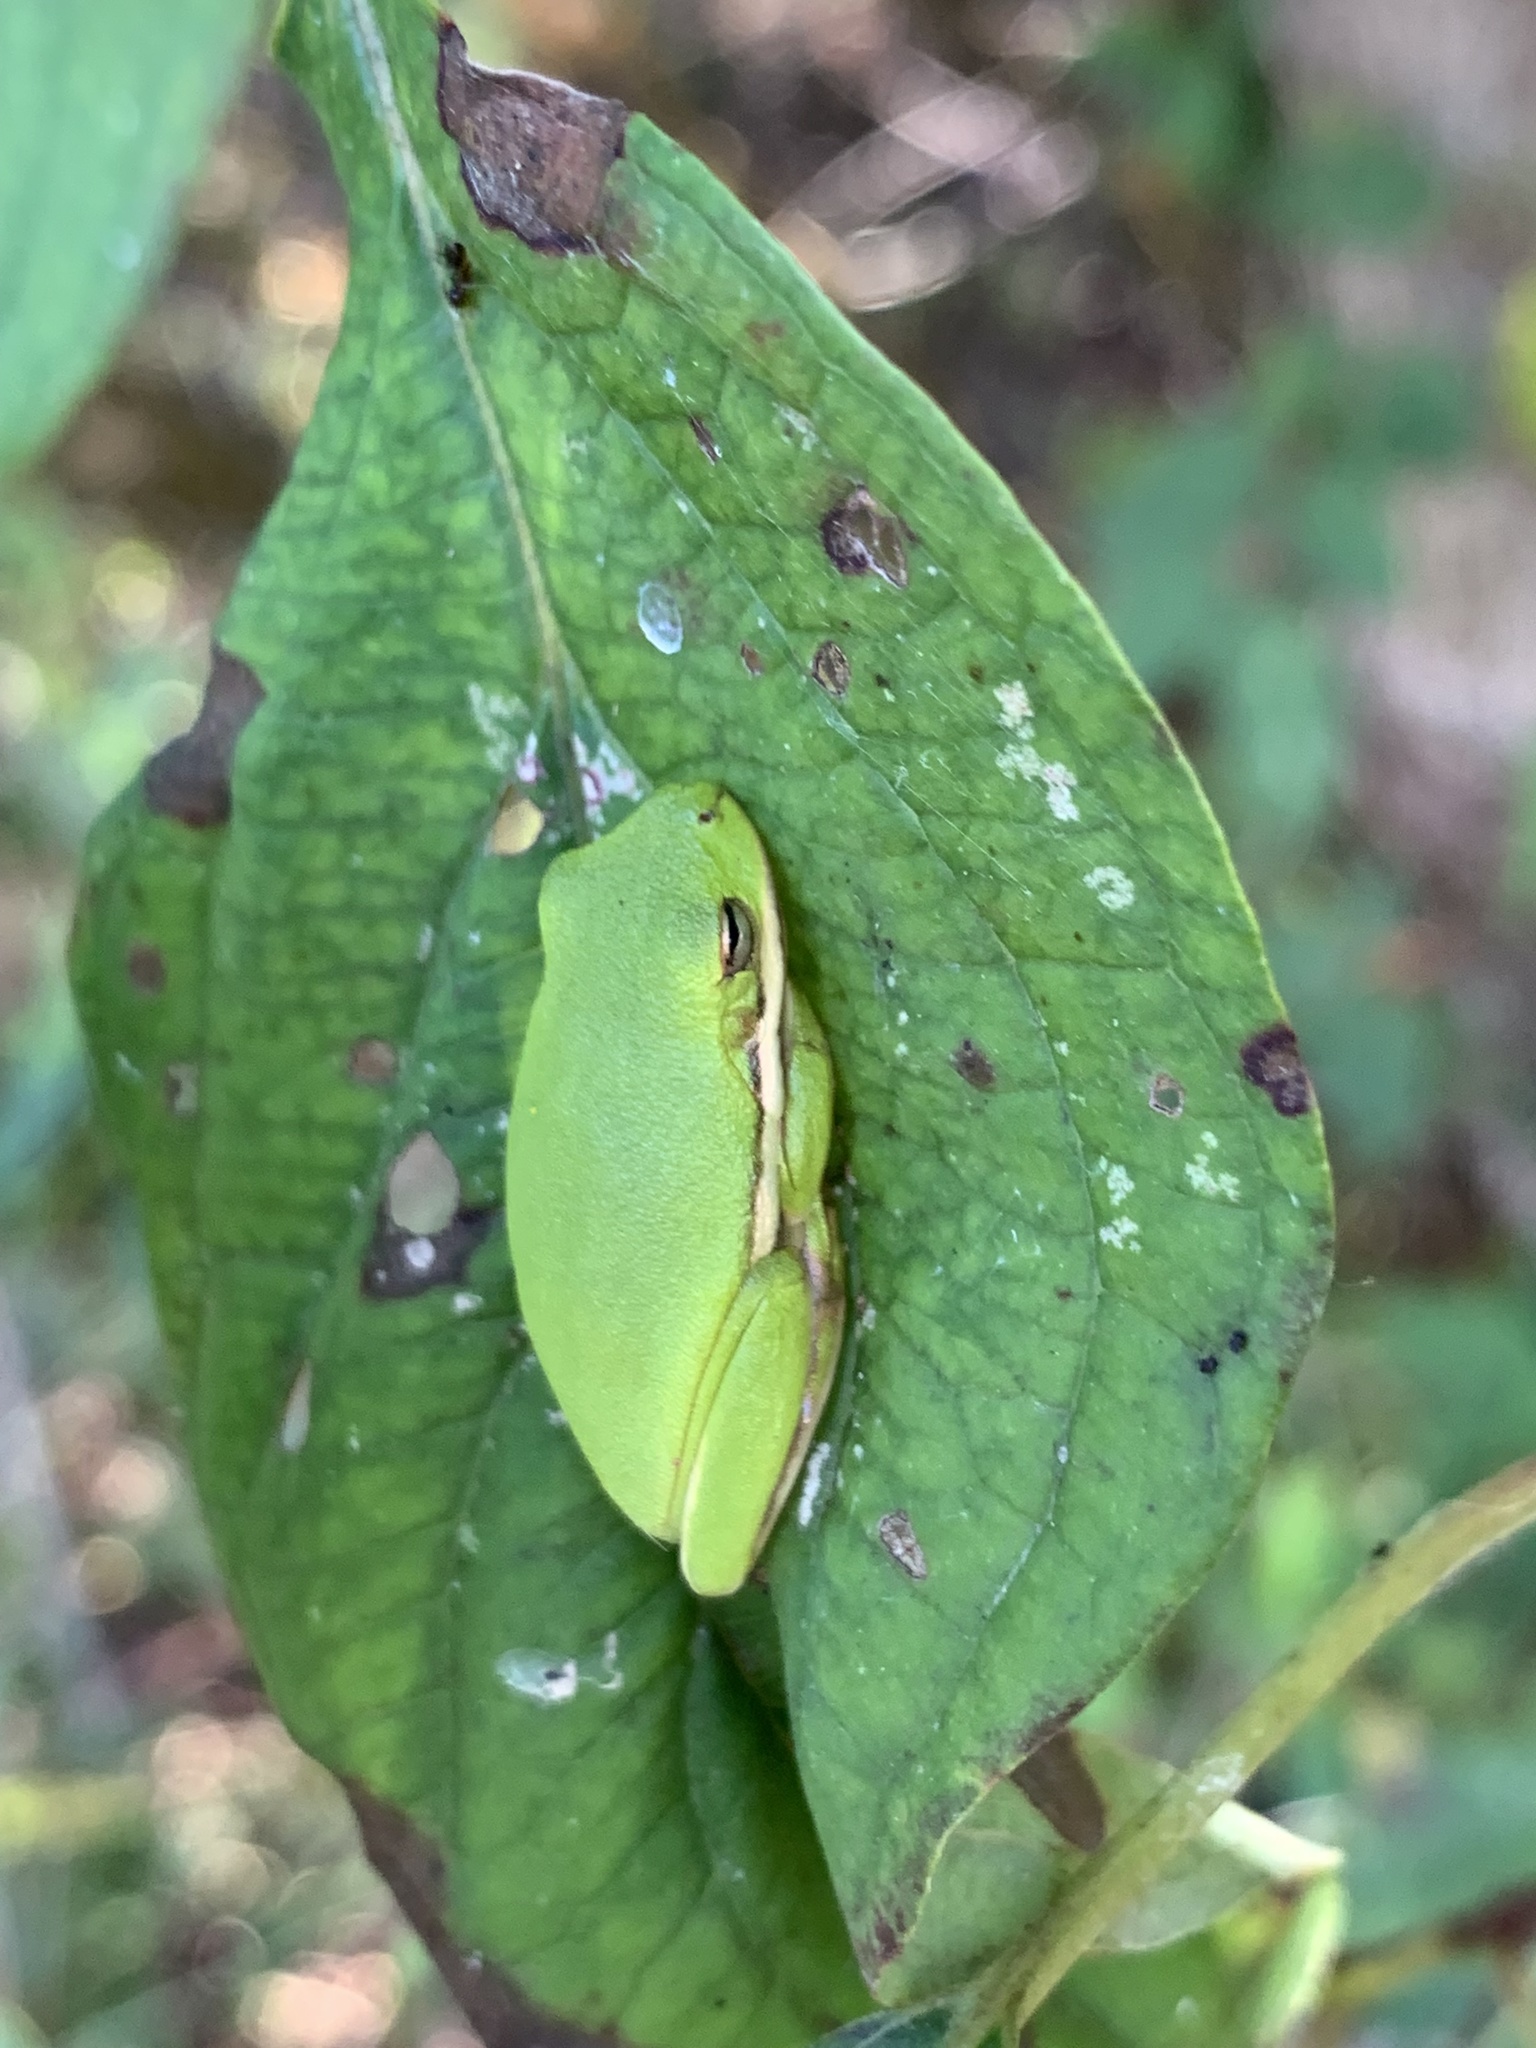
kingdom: Animalia
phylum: Chordata
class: Amphibia
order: Anura
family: Hylidae
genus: Dryophytes
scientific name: Dryophytes cinereus
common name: Green treefrog
